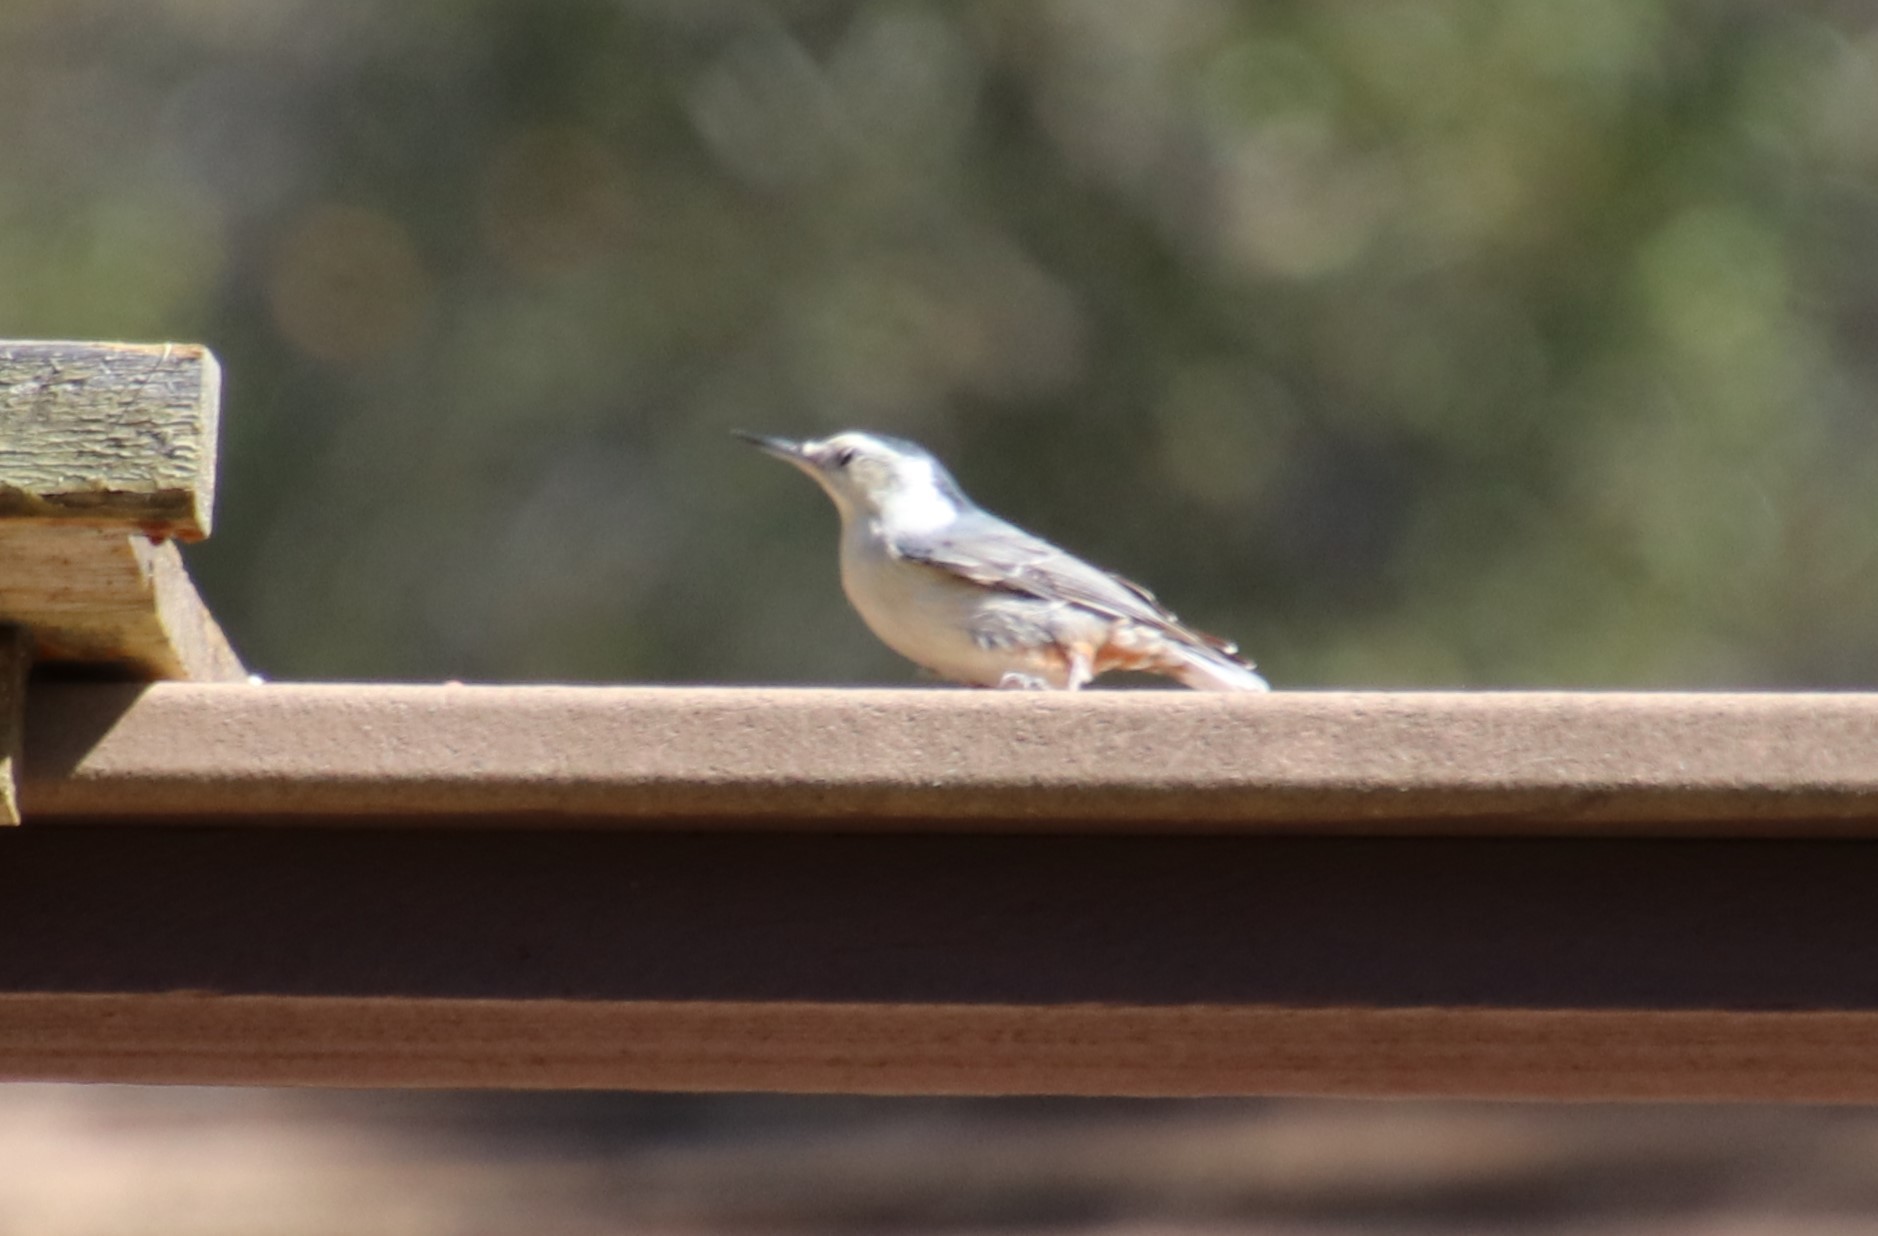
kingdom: Animalia
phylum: Chordata
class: Aves
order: Passeriformes
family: Sittidae
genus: Sitta
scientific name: Sitta carolinensis
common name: White-breasted nuthatch
